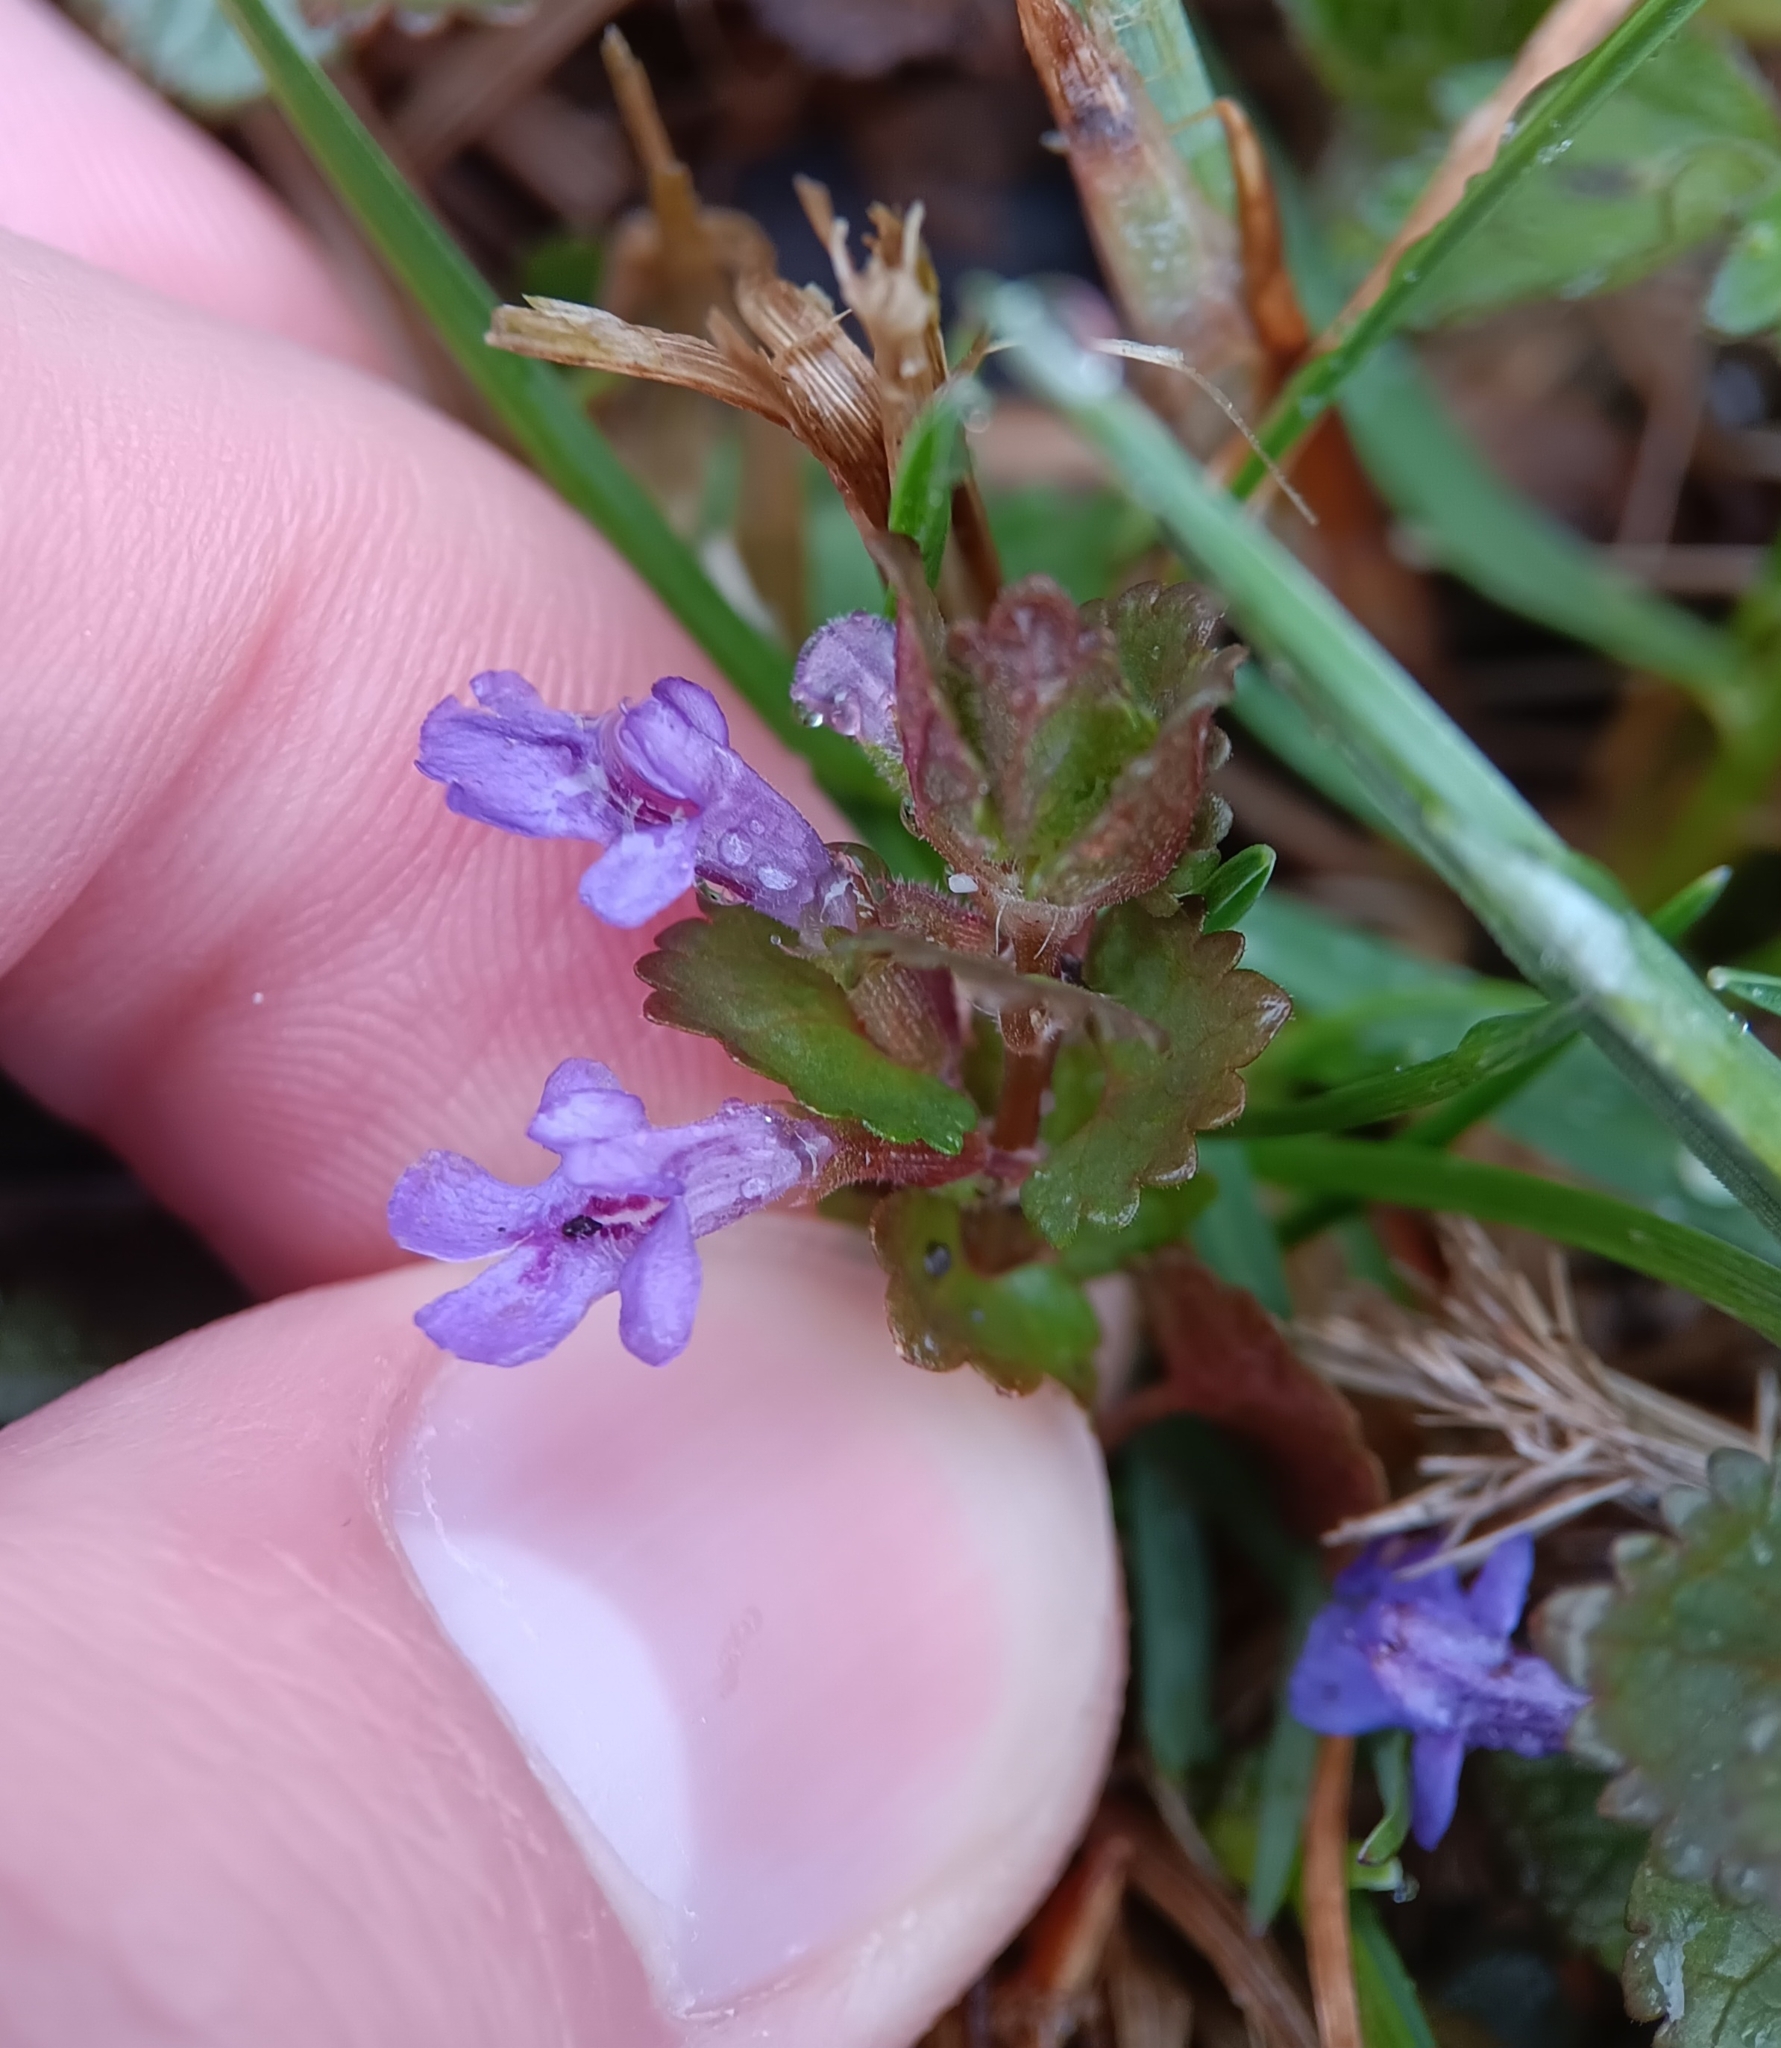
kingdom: Plantae
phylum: Tracheophyta
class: Magnoliopsida
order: Lamiales
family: Lamiaceae
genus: Glechoma
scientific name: Glechoma hederacea
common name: Ground ivy
